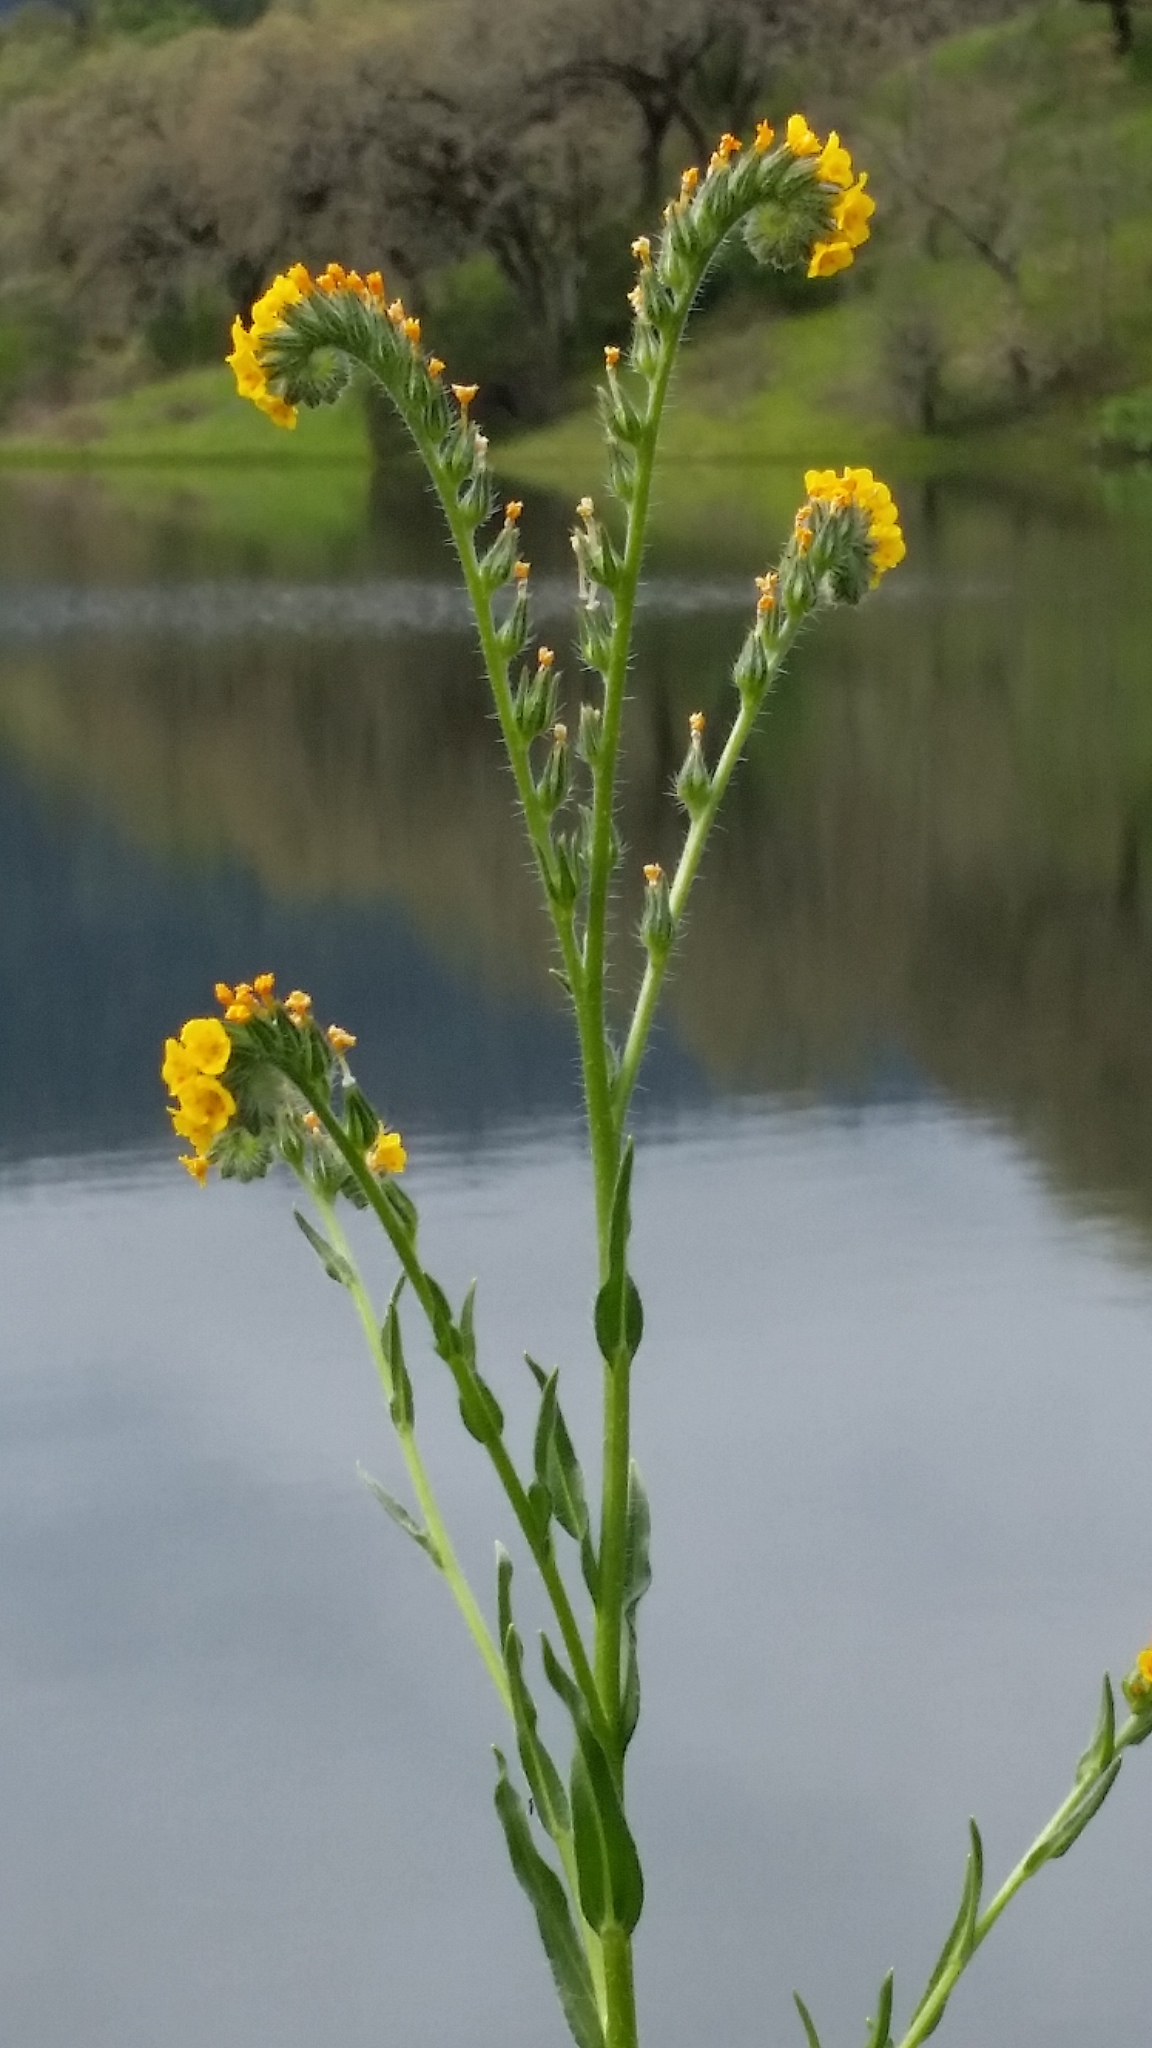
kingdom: Plantae
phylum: Tracheophyta
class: Magnoliopsida
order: Boraginales
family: Boraginaceae
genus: Amsinckia
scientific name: Amsinckia menziesii
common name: Menzies' fiddleneck
